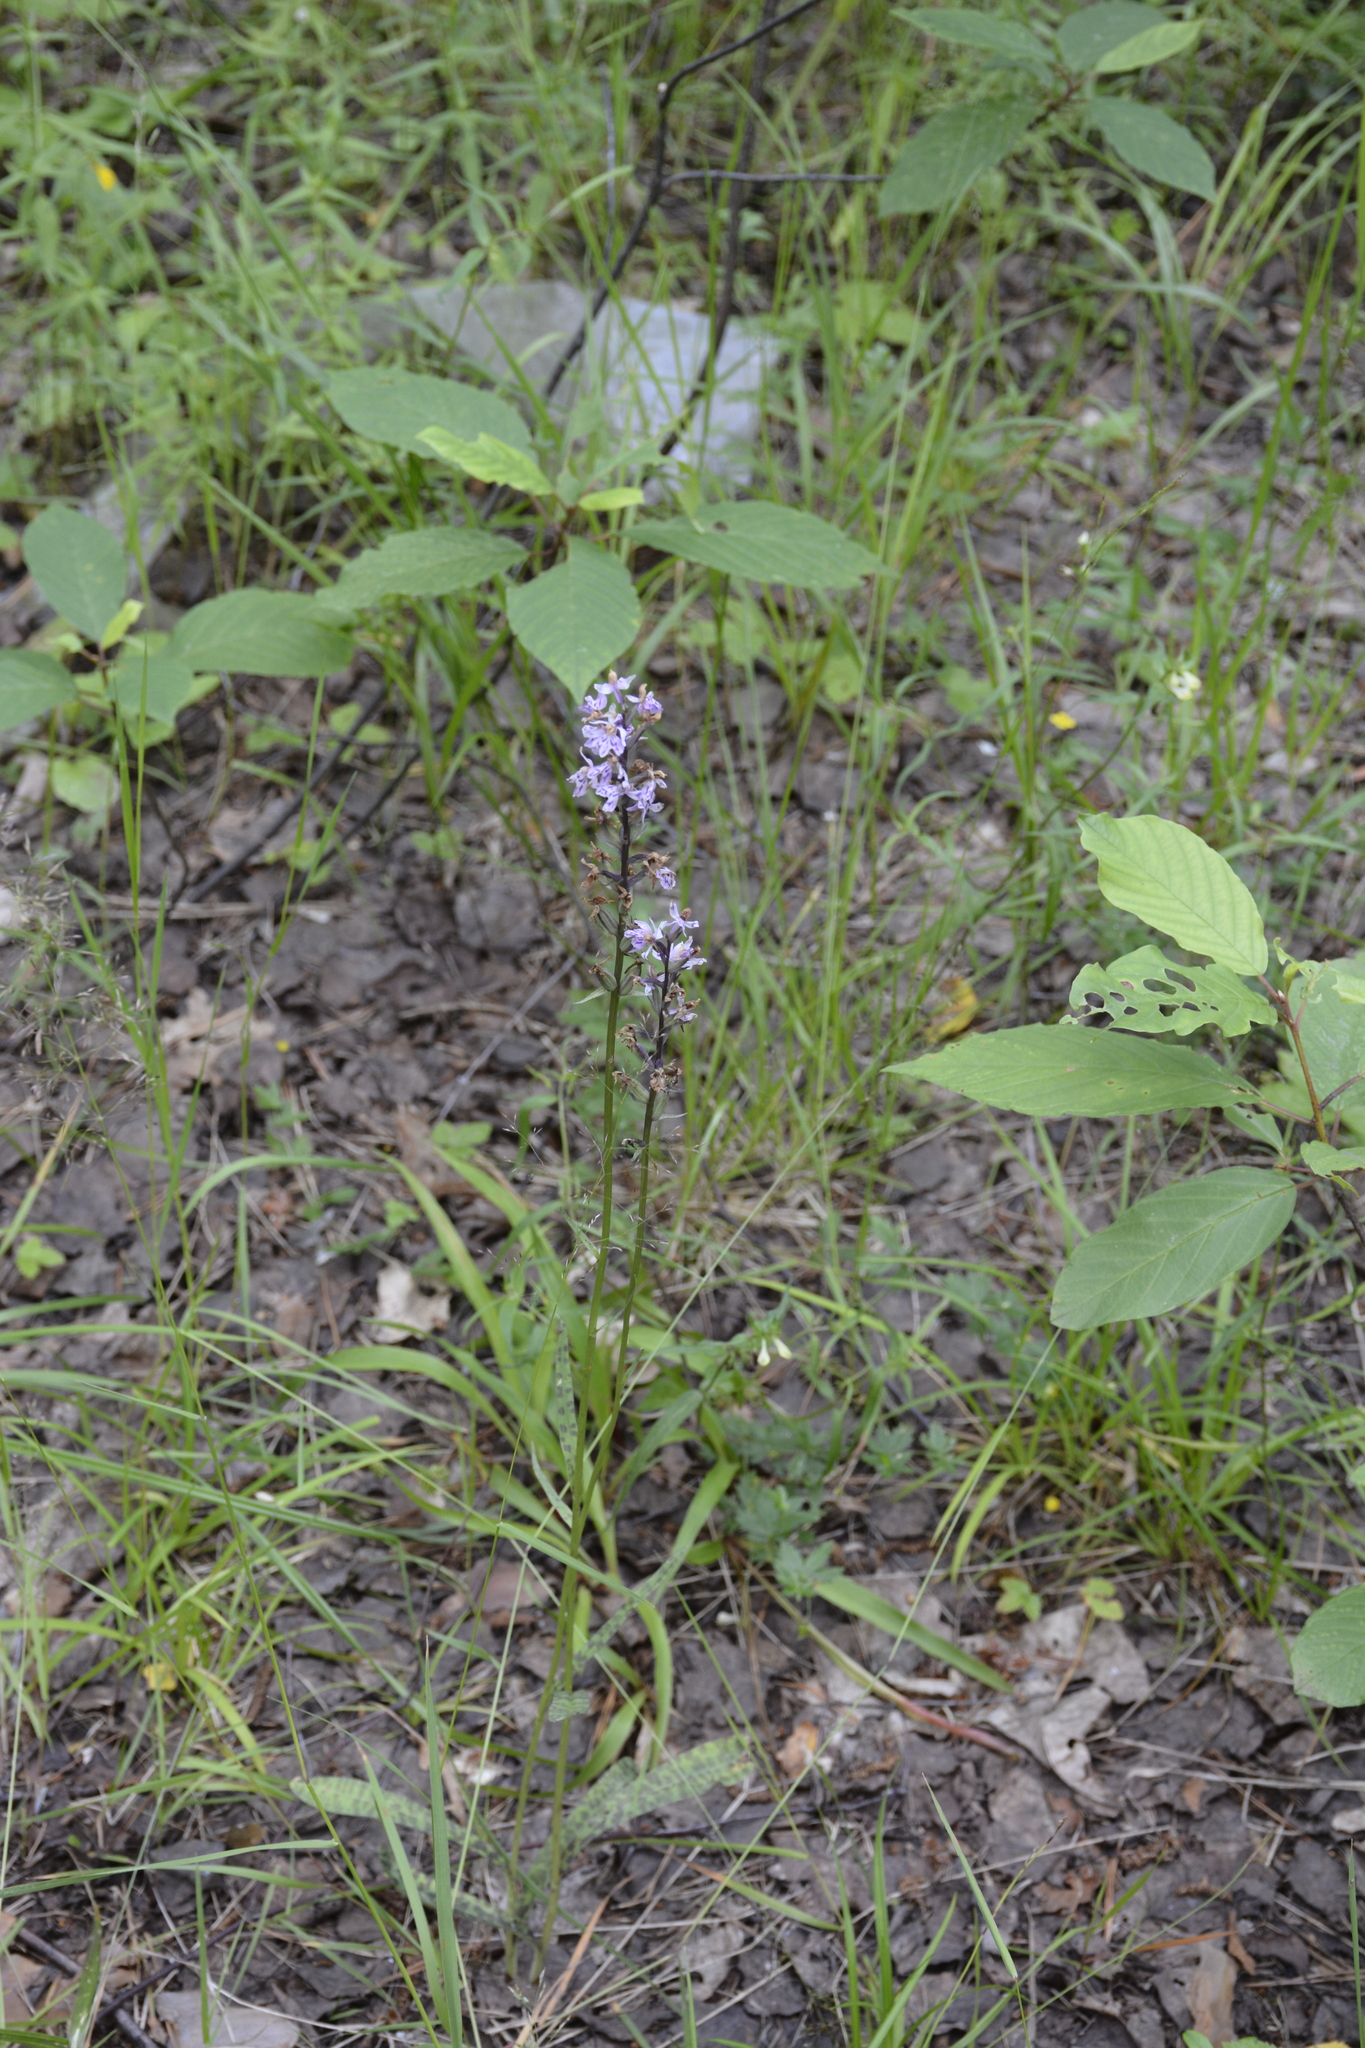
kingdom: Plantae
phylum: Tracheophyta
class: Liliopsida
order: Asparagales
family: Orchidaceae
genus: Dactylorhiza
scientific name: Dactylorhiza maculata
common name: Heath spotted-orchid
